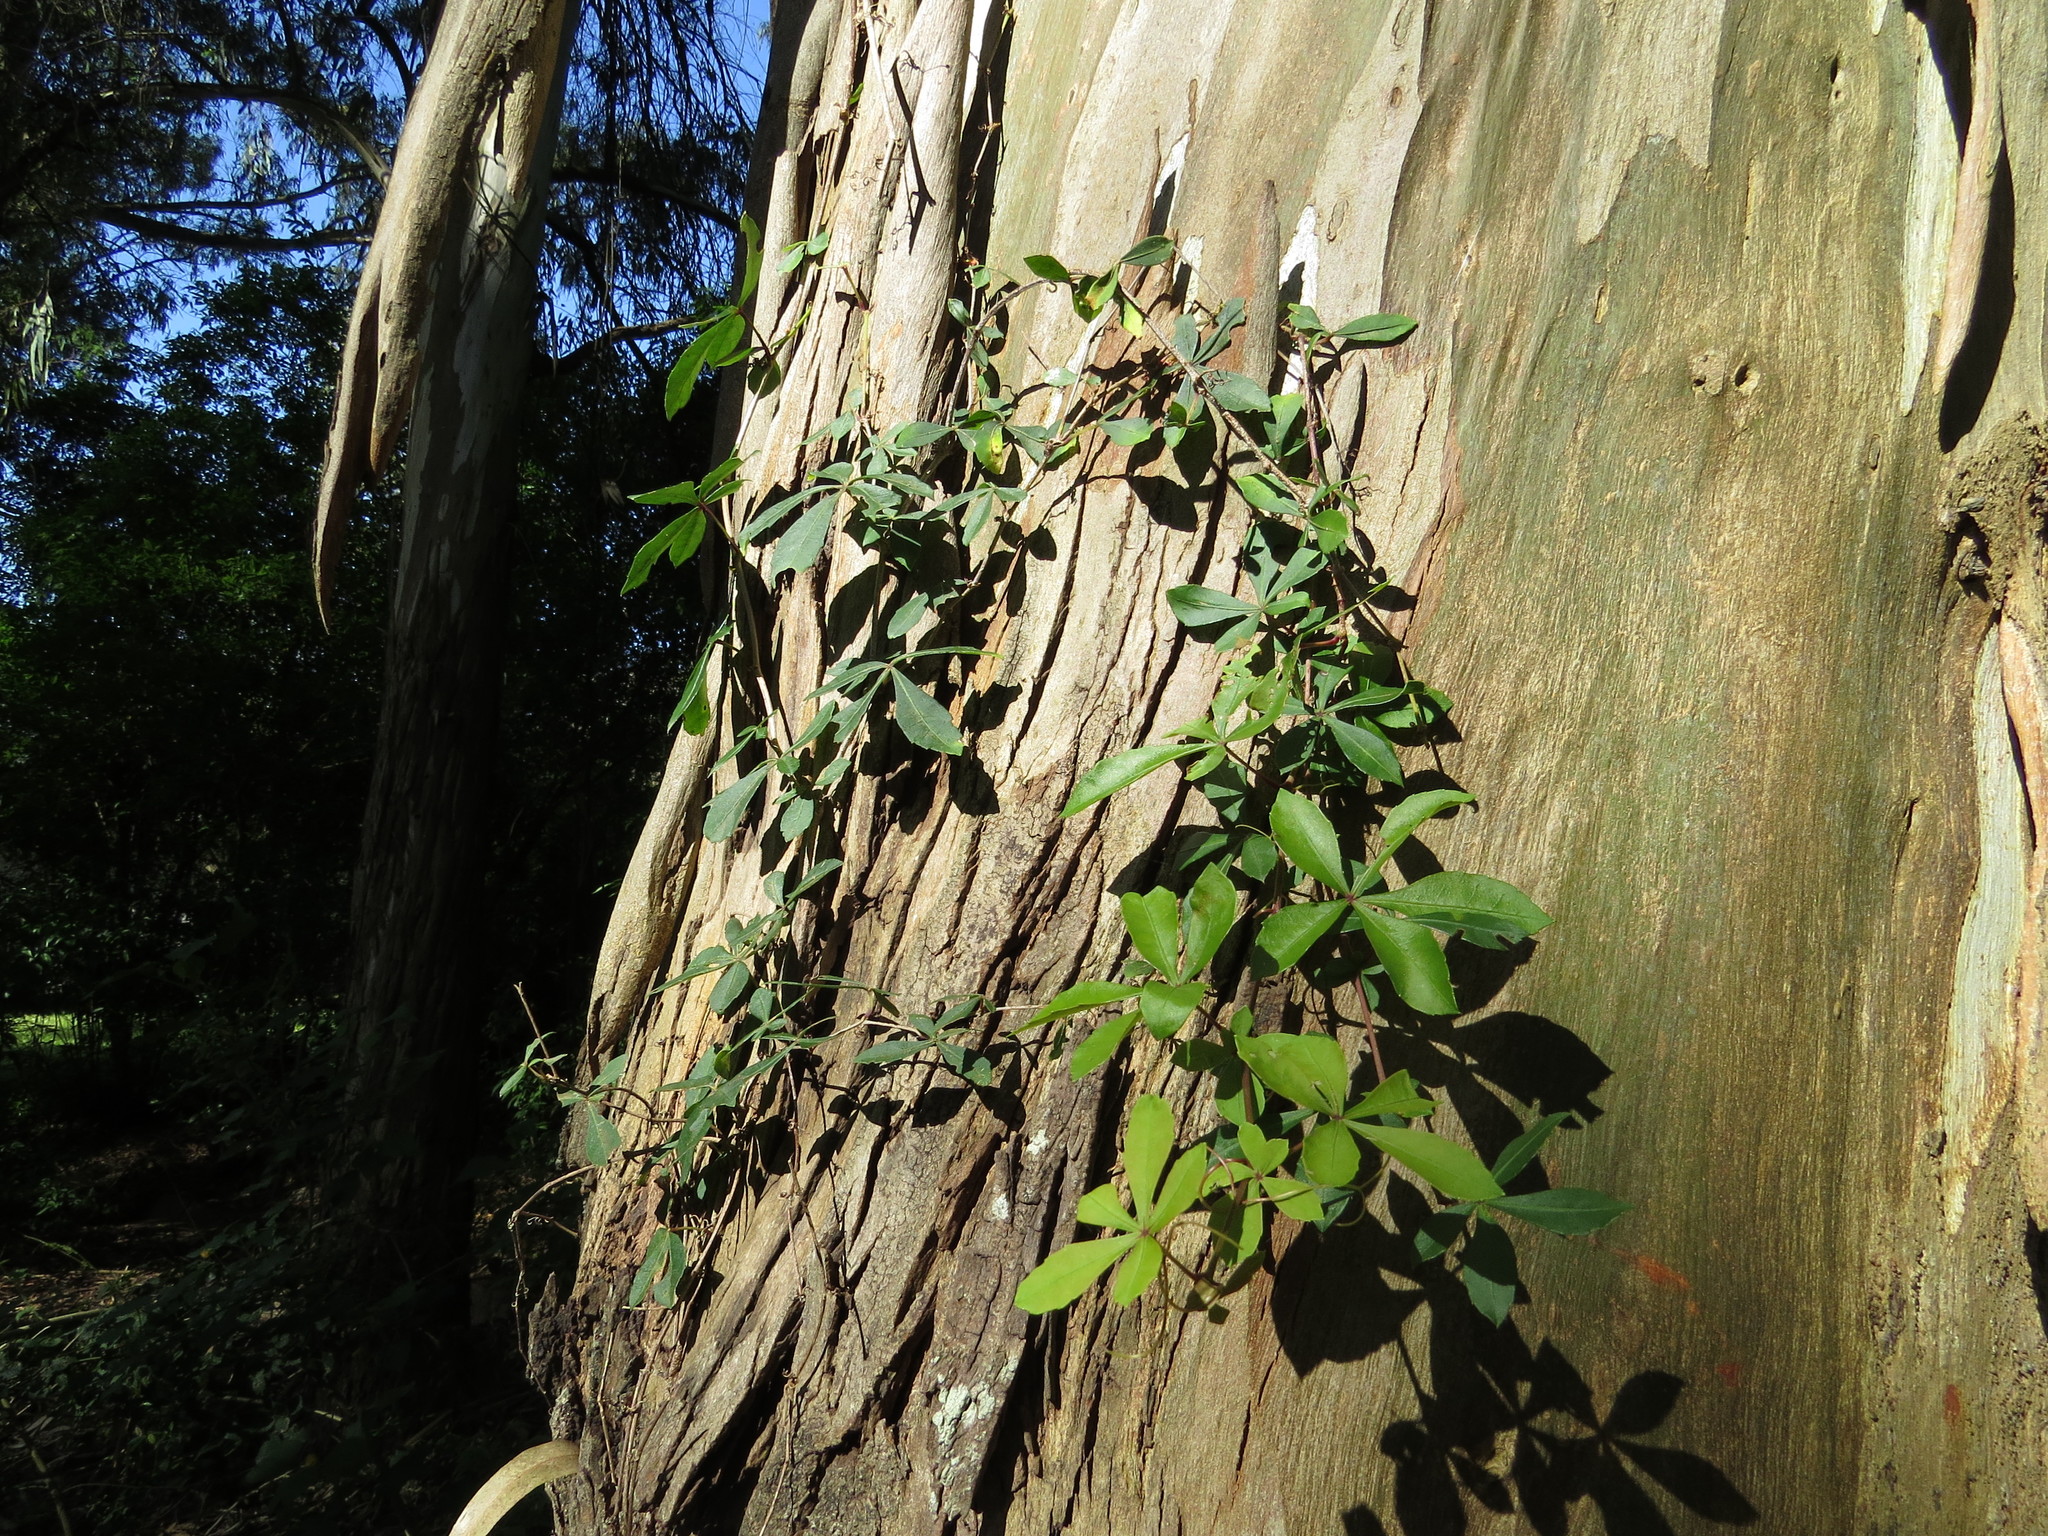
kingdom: Plantae
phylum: Tracheophyta
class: Magnoliopsida
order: Vitales
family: Vitaceae
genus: Clematicissus
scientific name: Clematicissus striata
